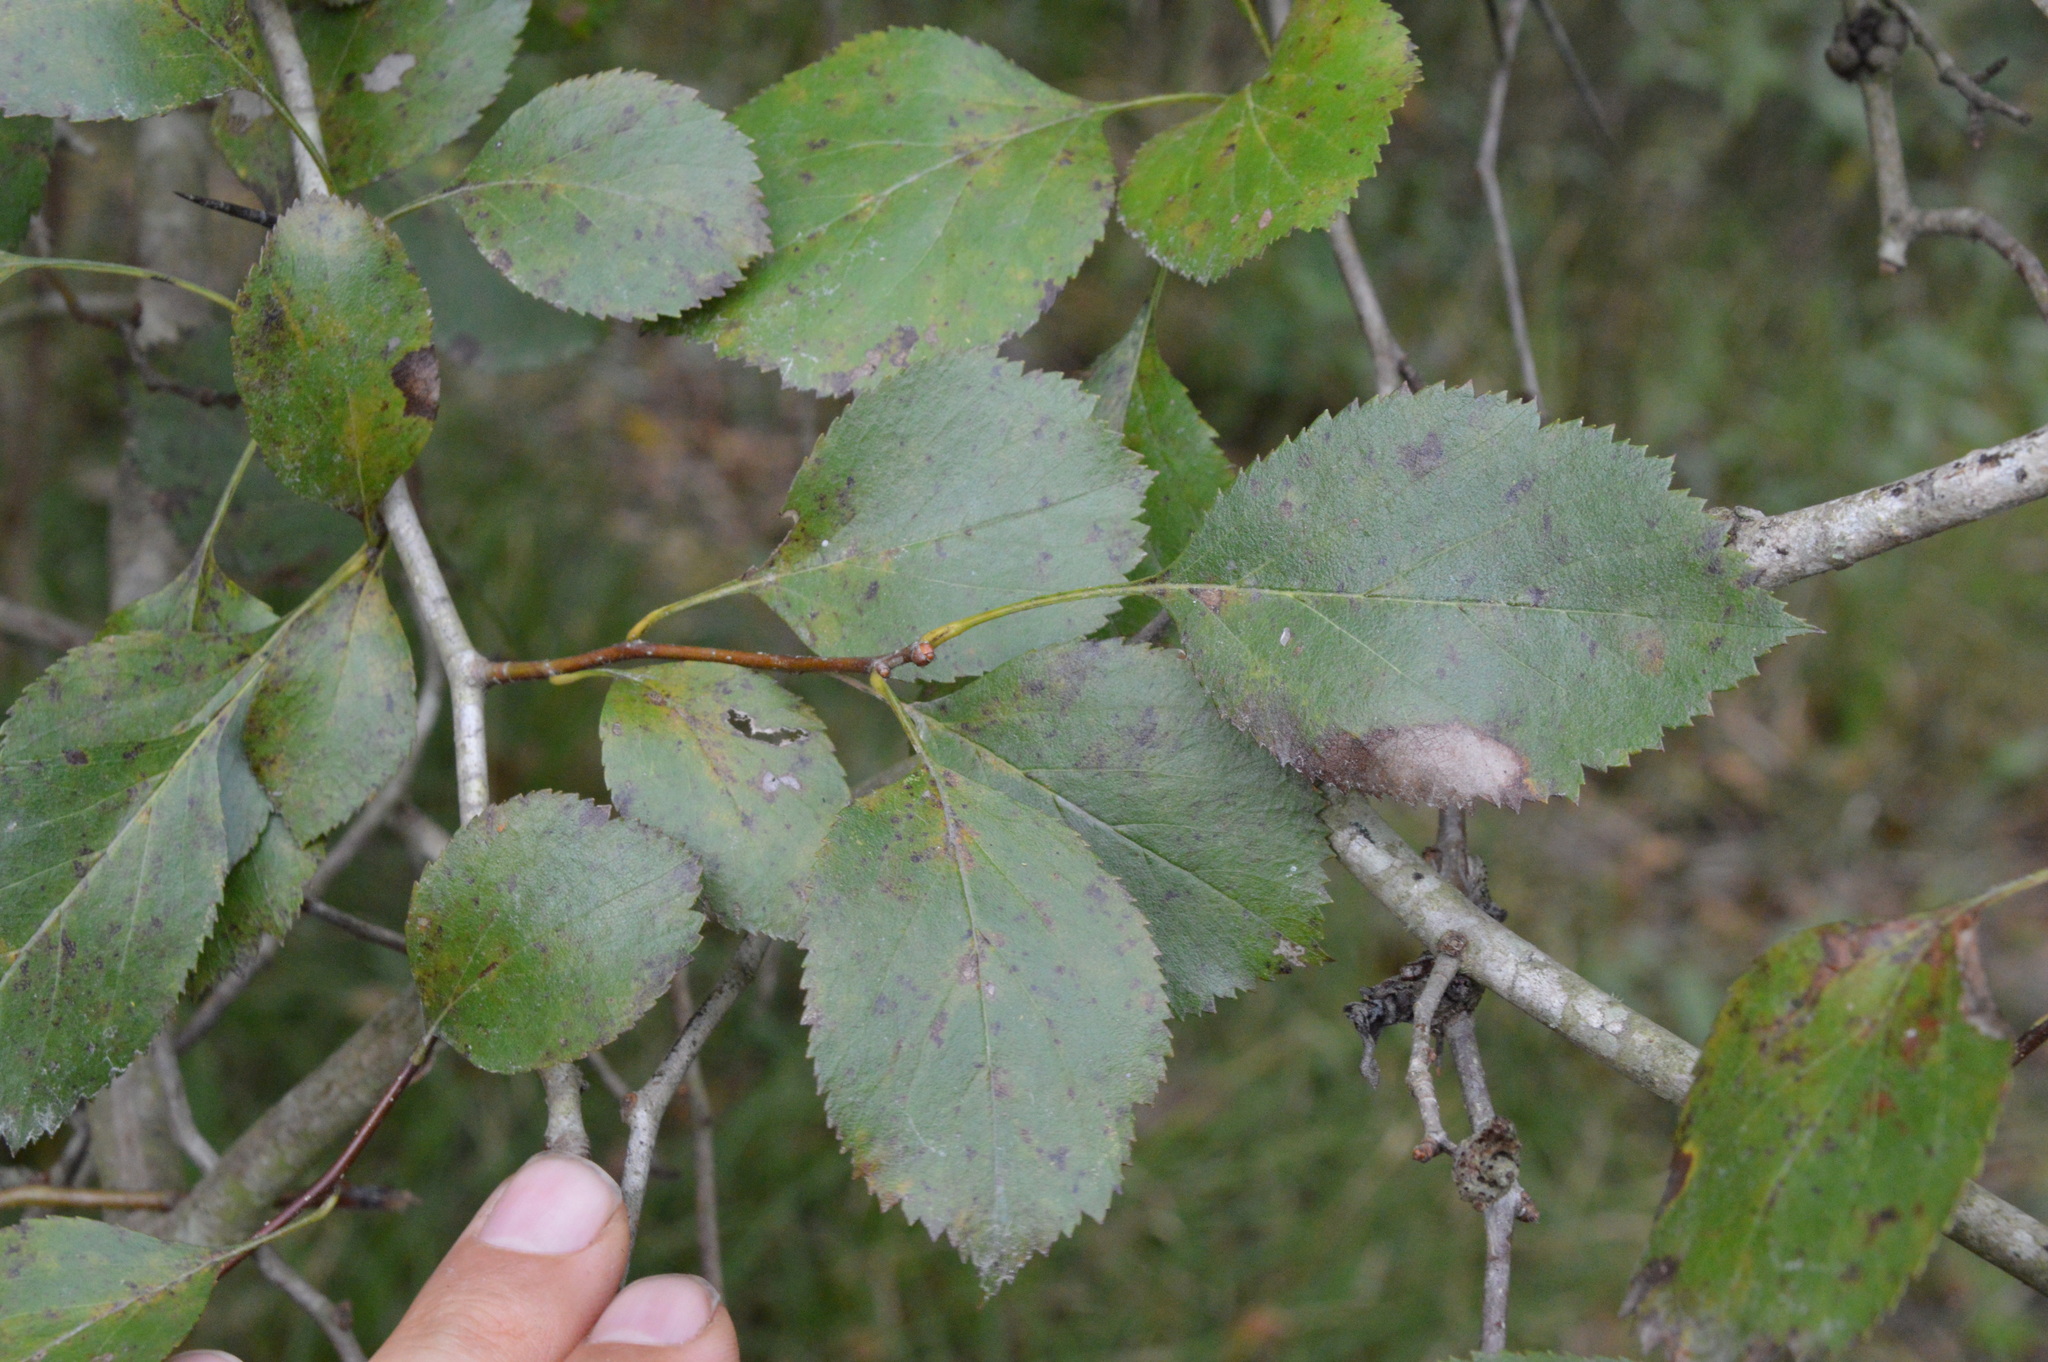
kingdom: Plantae
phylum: Tracheophyta
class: Magnoliopsida
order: Rosales
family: Rosaceae
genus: Crataegus
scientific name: Crataegus viridis
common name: Southernthorn
